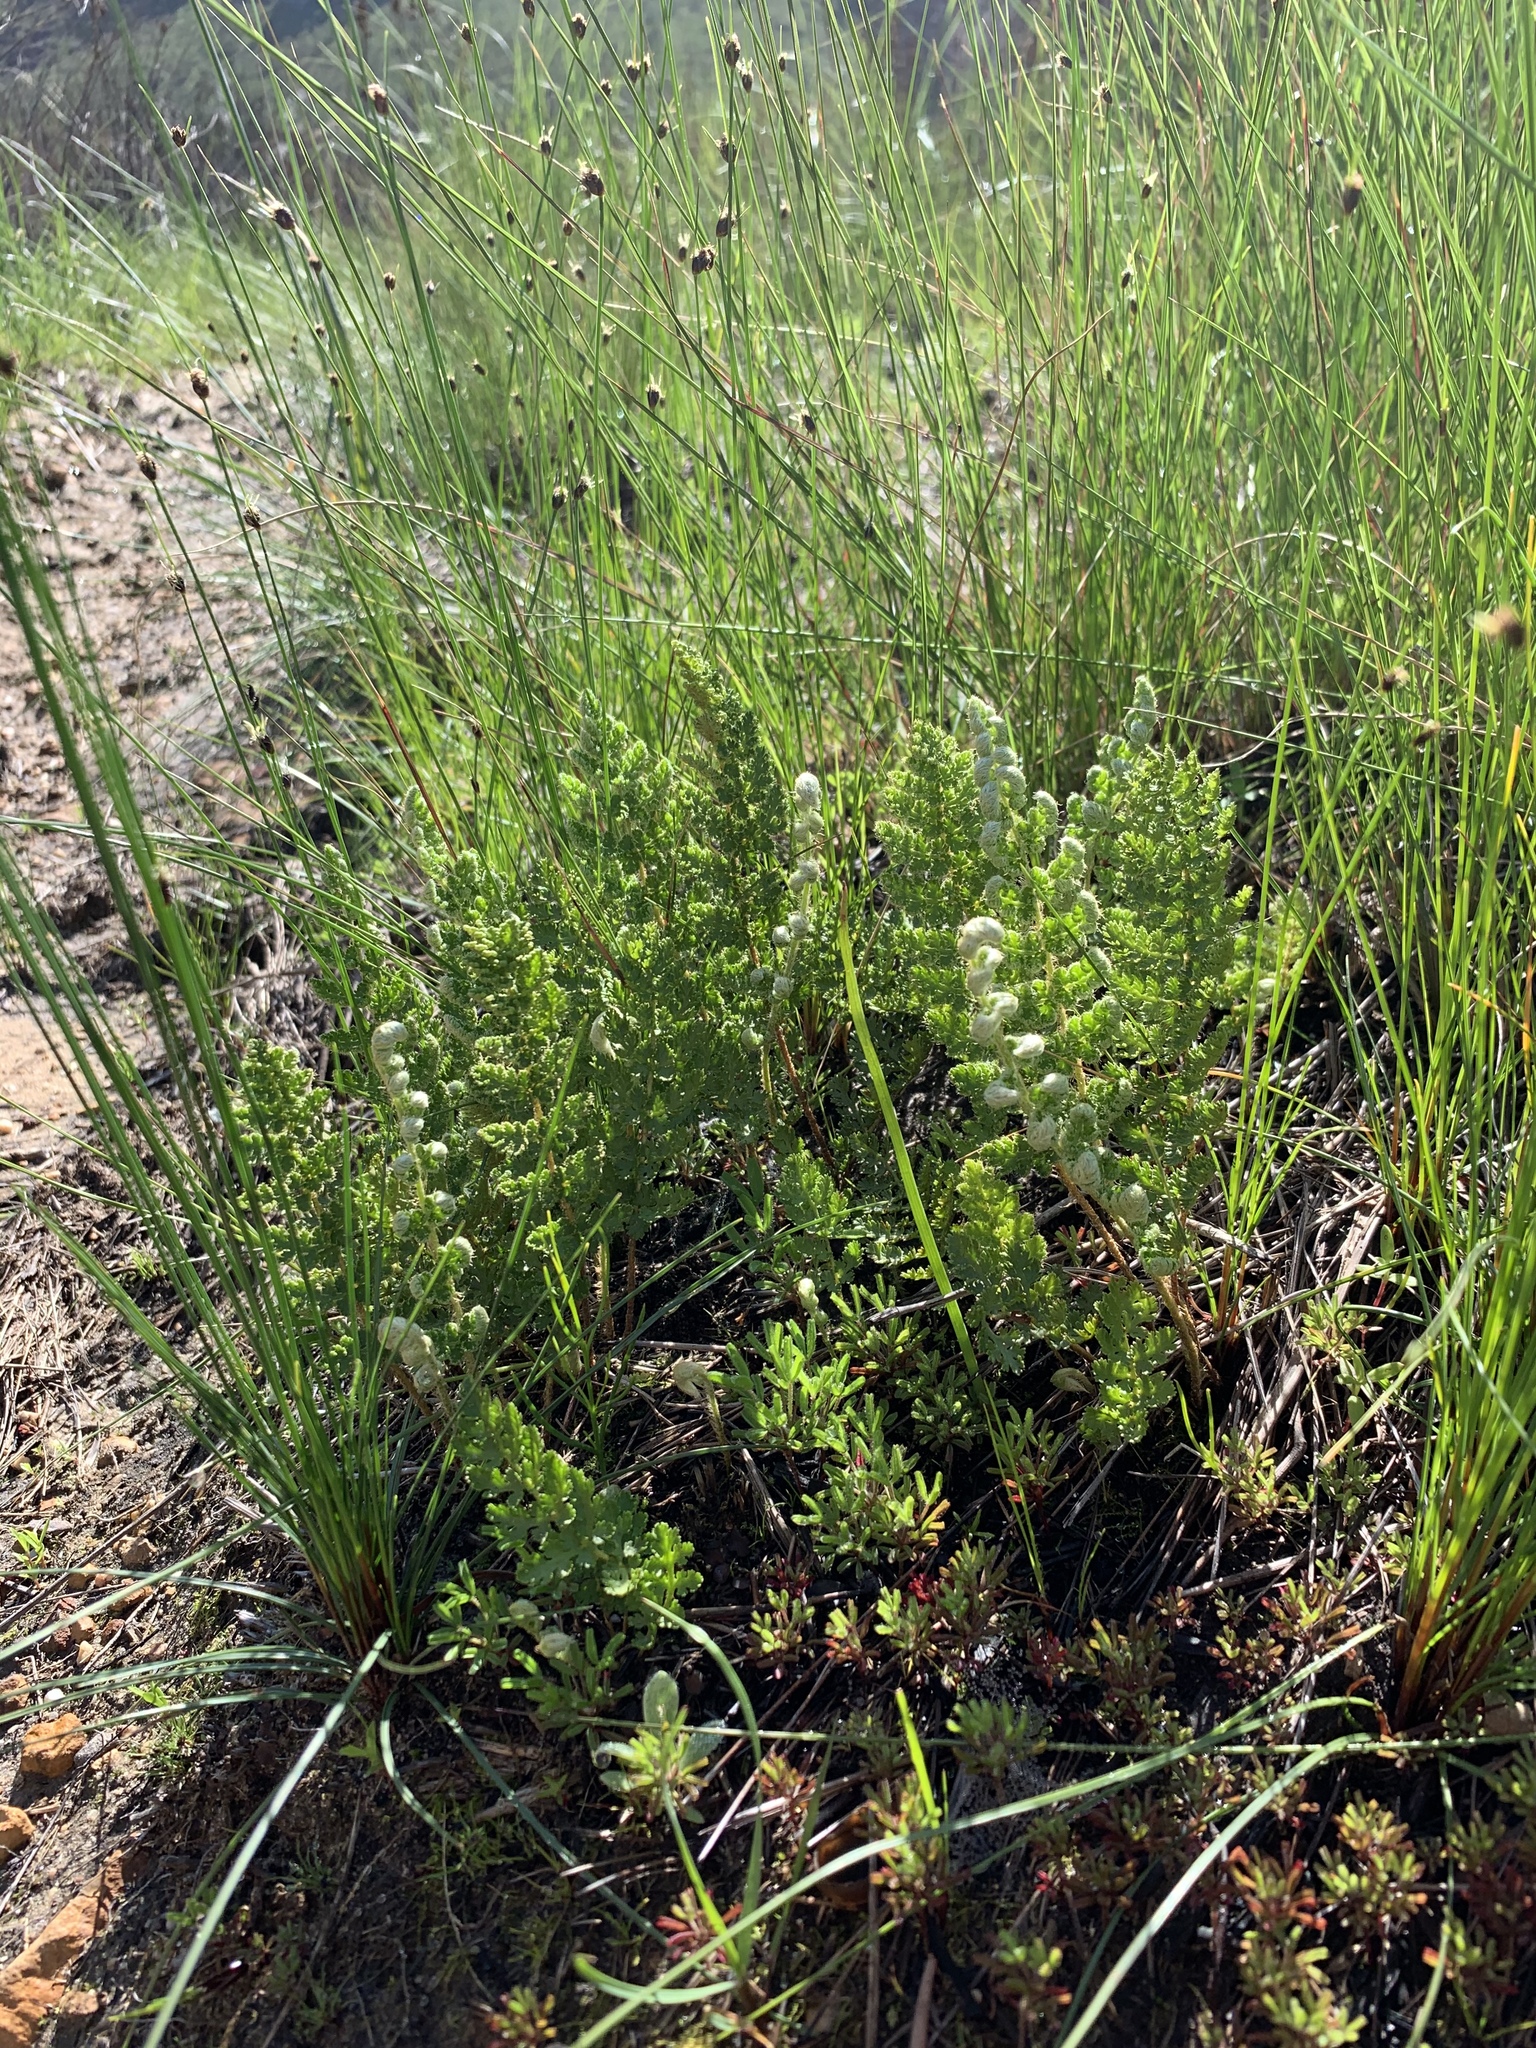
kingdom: Plantae
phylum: Tracheophyta
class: Polypodiopsida
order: Schizaeales
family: Anemiaceae
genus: Anemia
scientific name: Anemia caffrorum
